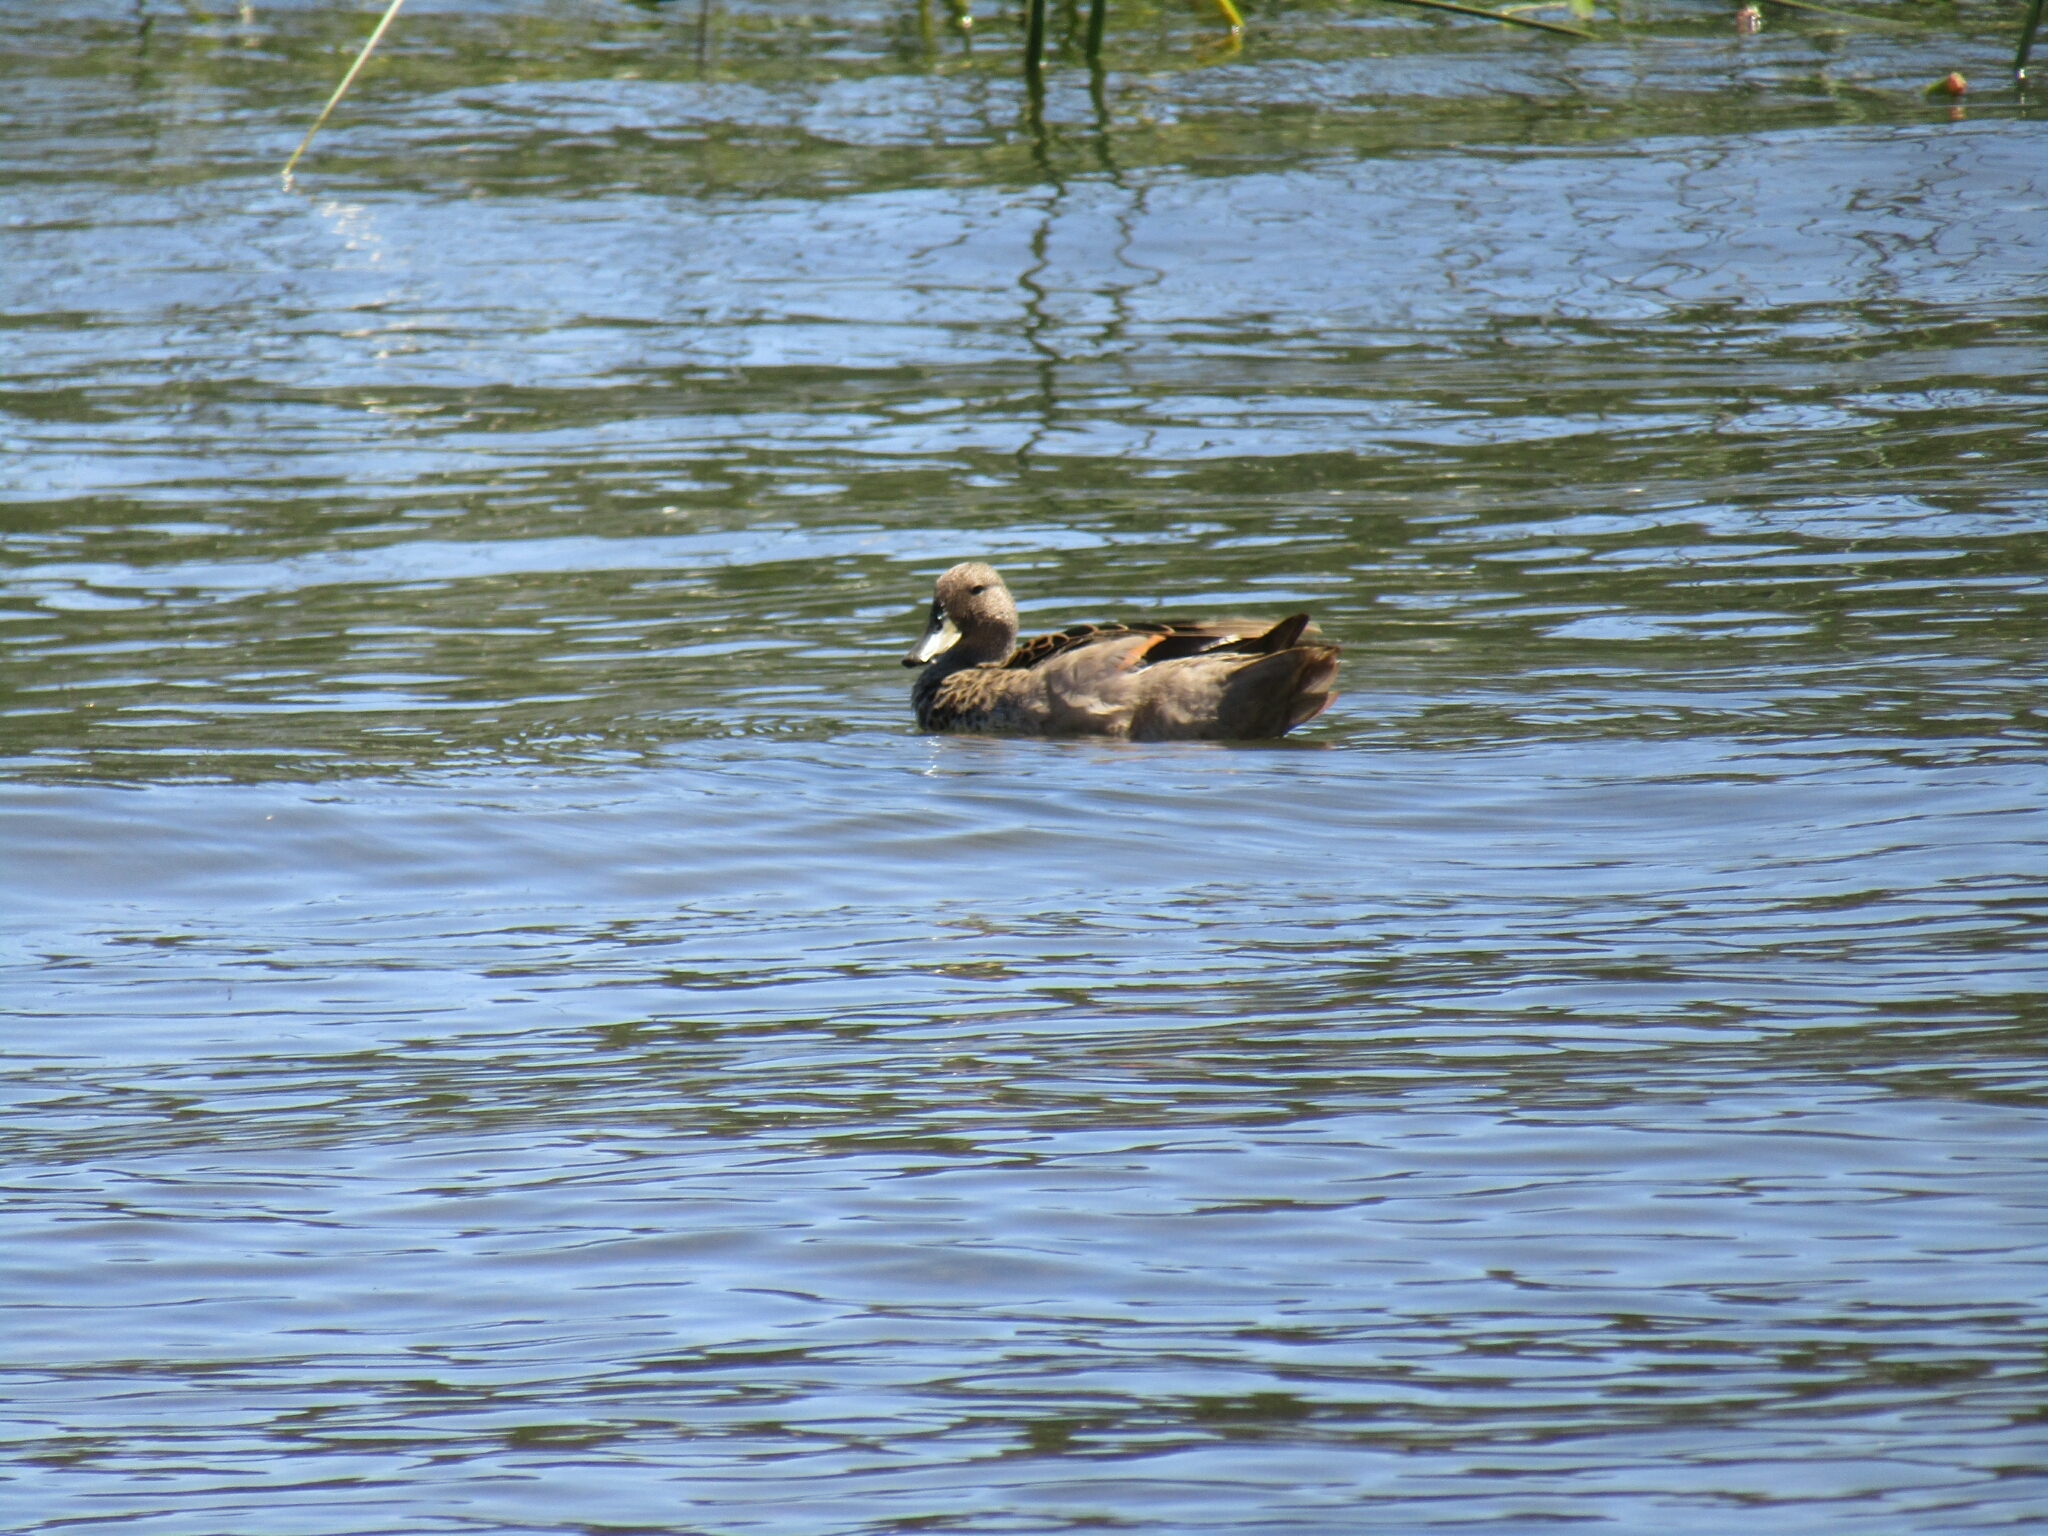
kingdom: Animalia
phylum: Chordata
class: Aves
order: Anseriformes
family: Anatidae
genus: Anas
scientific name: Anas flavirostris
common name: Yellow-billed teal
